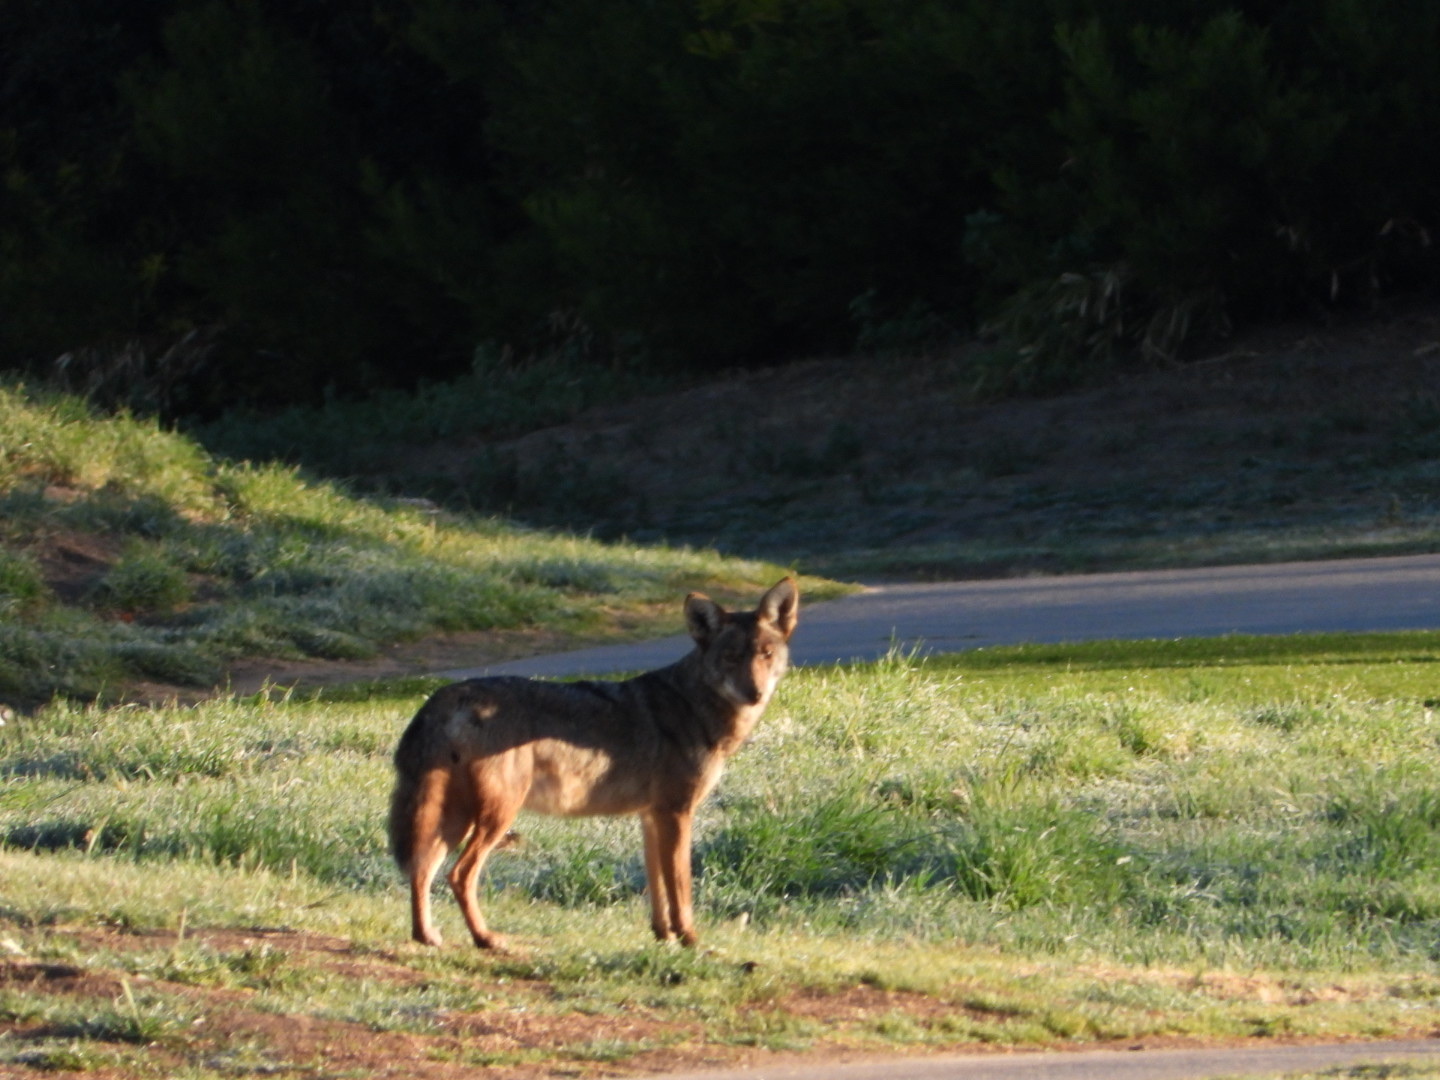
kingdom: Animalia
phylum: Chordata
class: Mammalia
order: Carnivora
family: Canidae
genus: Canis
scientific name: Canis latrans
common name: Coyote
